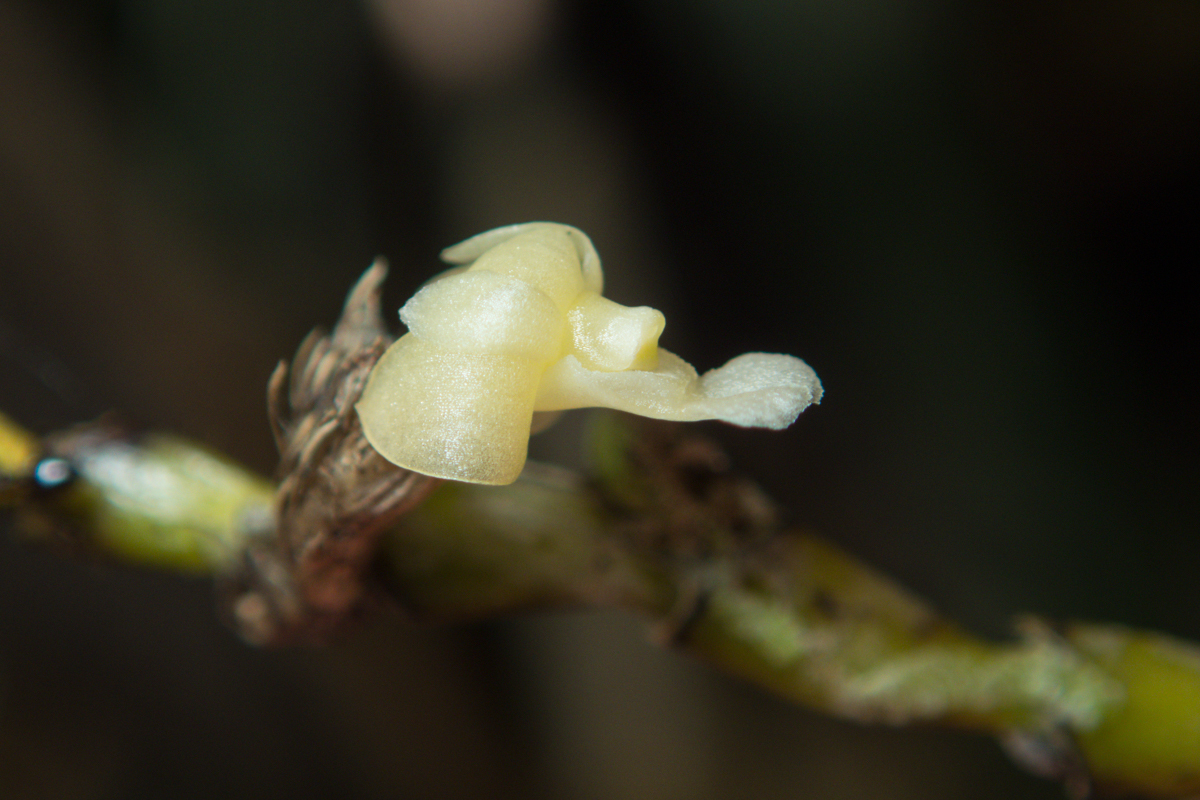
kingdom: Plantae
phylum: Tracheophyta
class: Liliopsida
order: Asparagales
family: Orchidaceae
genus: Dendrobium
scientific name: Dendrobium aloifolium
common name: Aloe-like dendrobium
